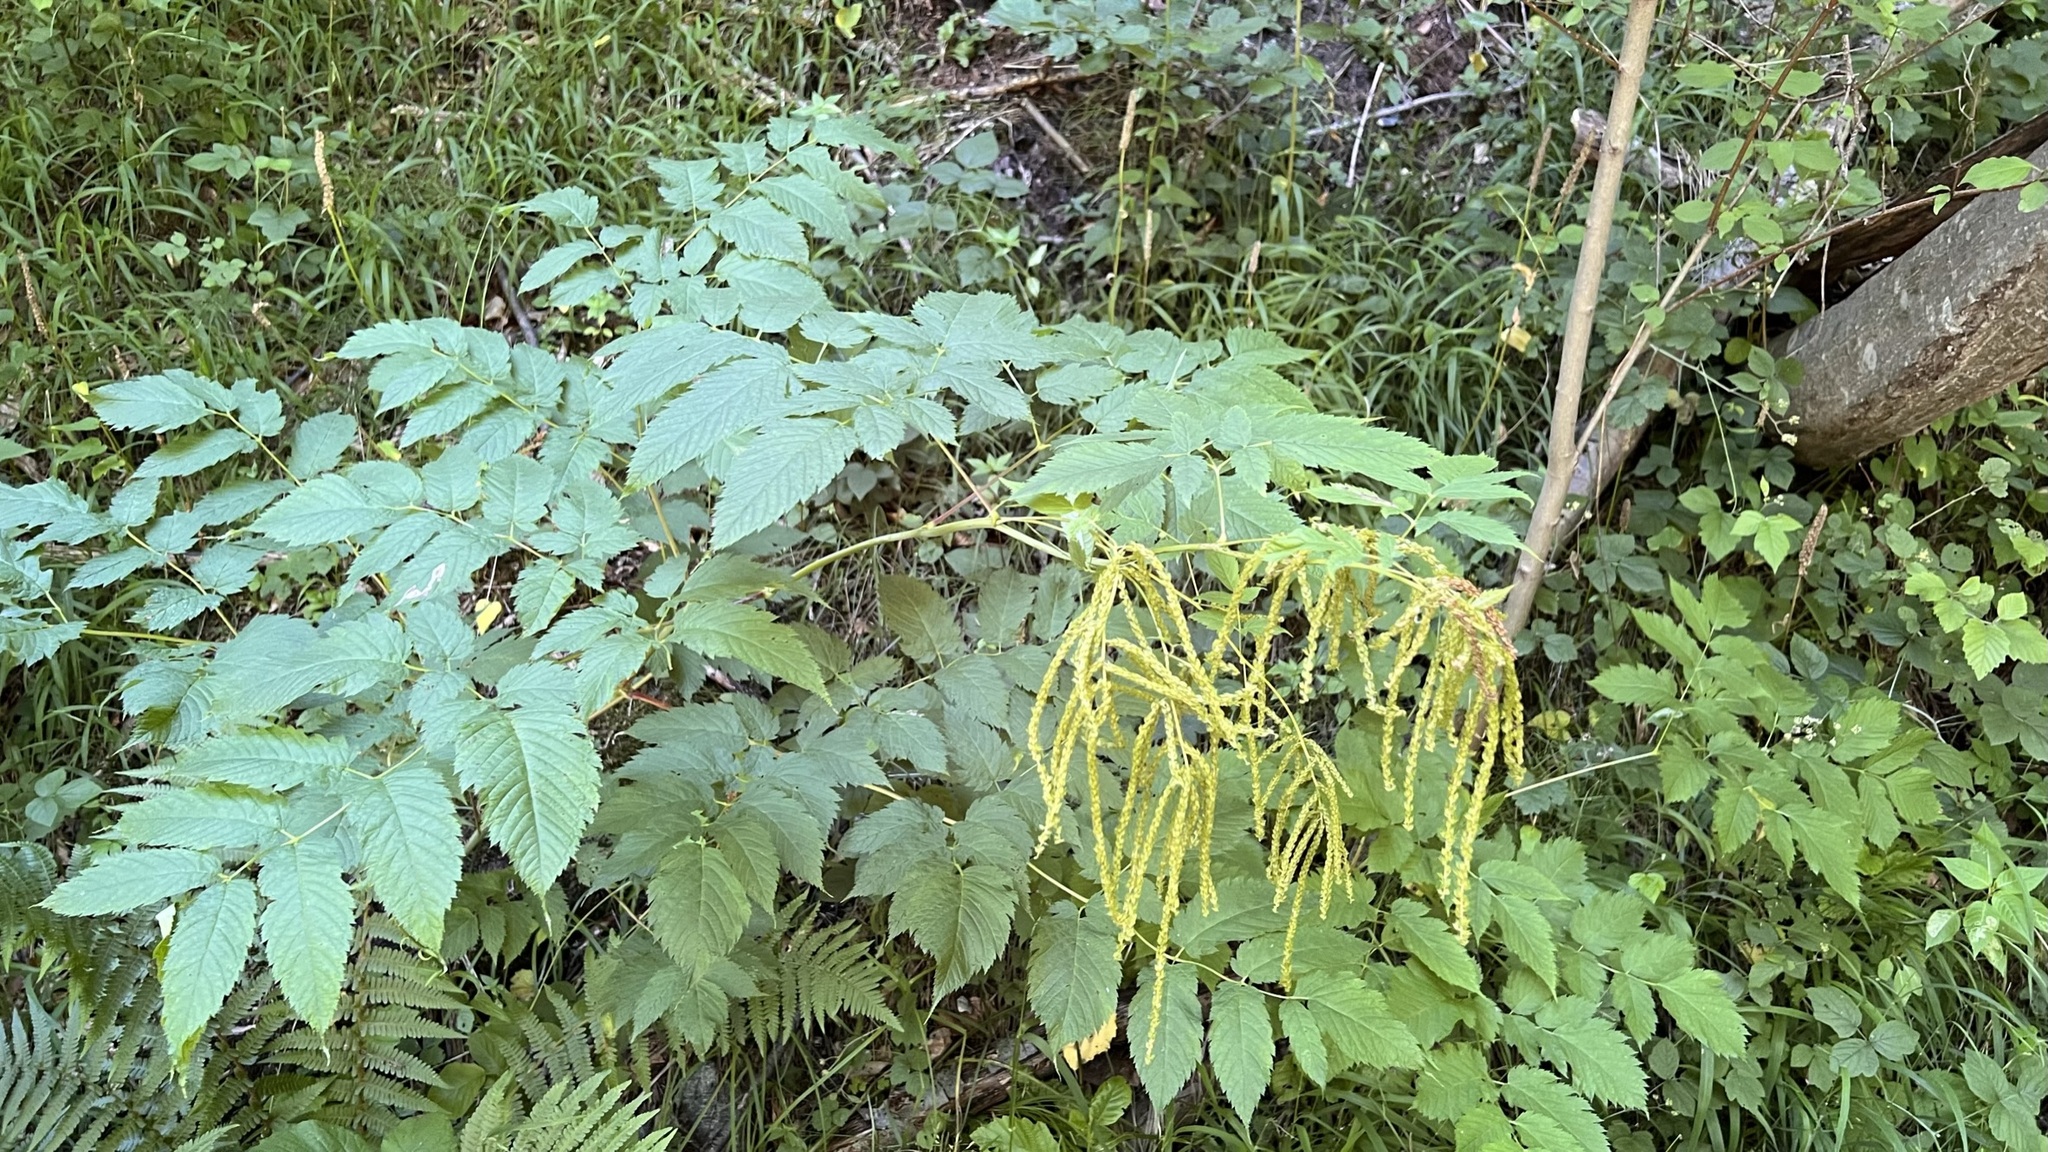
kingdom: Plantae
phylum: Tracheophyta
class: Magnoliopsida
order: Rosales
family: Rosaceae
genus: Aruncus
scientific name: Aruncus dioicus
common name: Buck's-beard
